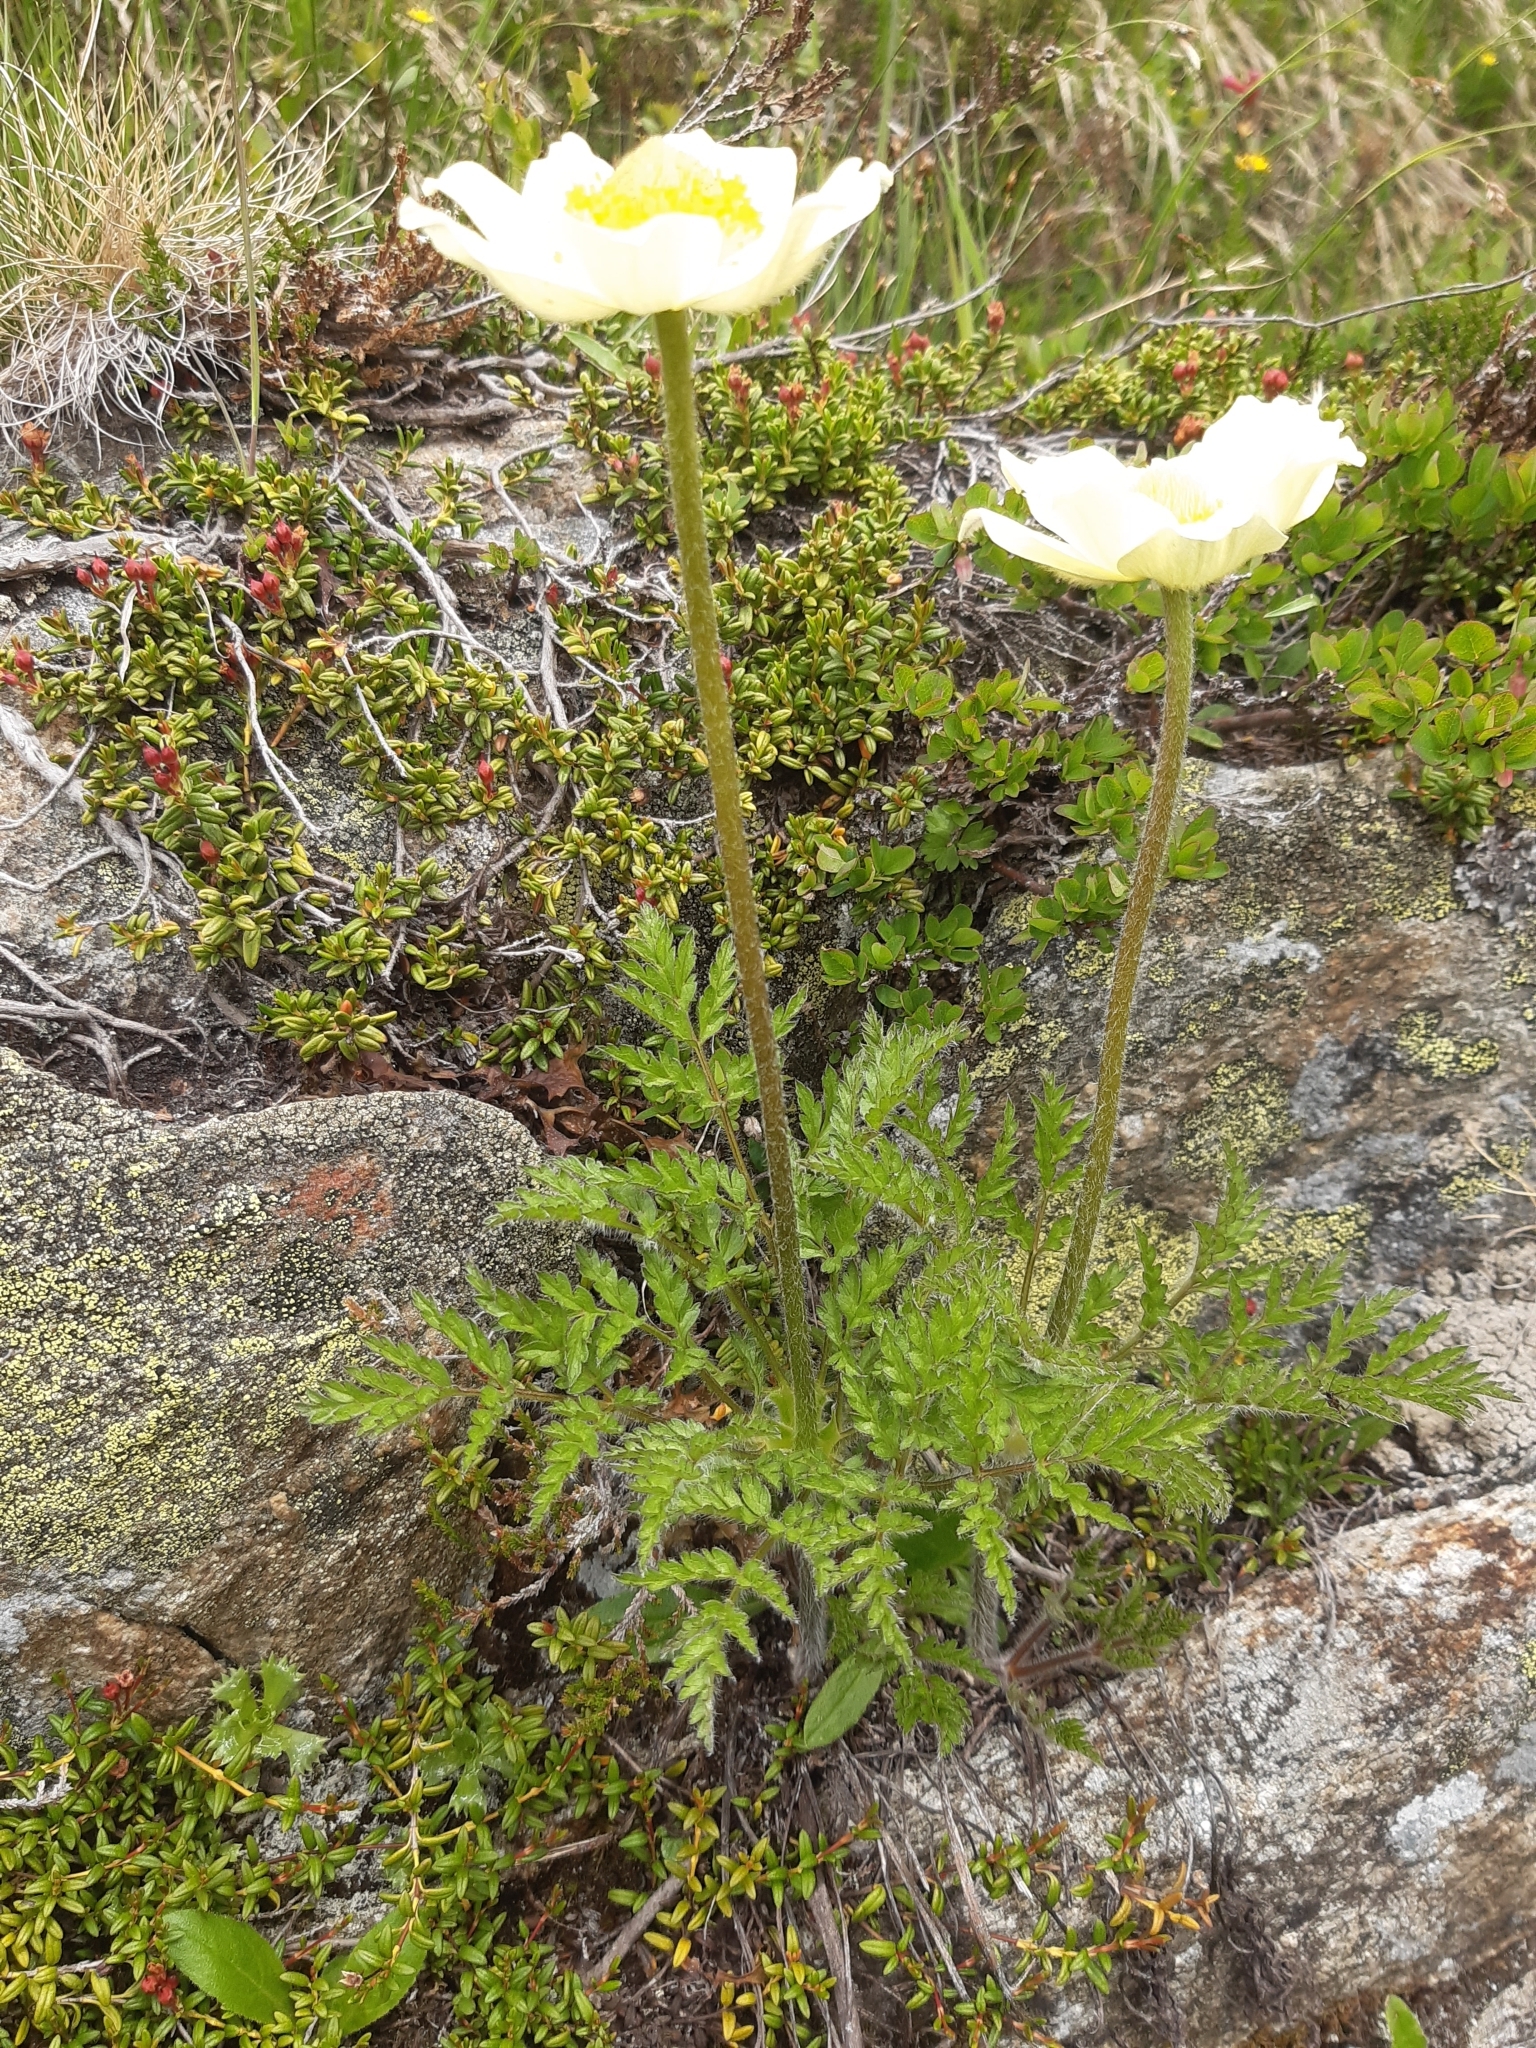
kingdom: Plantae
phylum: Tracheophyta
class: Magnoliopsida
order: Ranunculales
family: Ranunculaceae
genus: Pulsatilla
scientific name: Pulsatilla alpina
